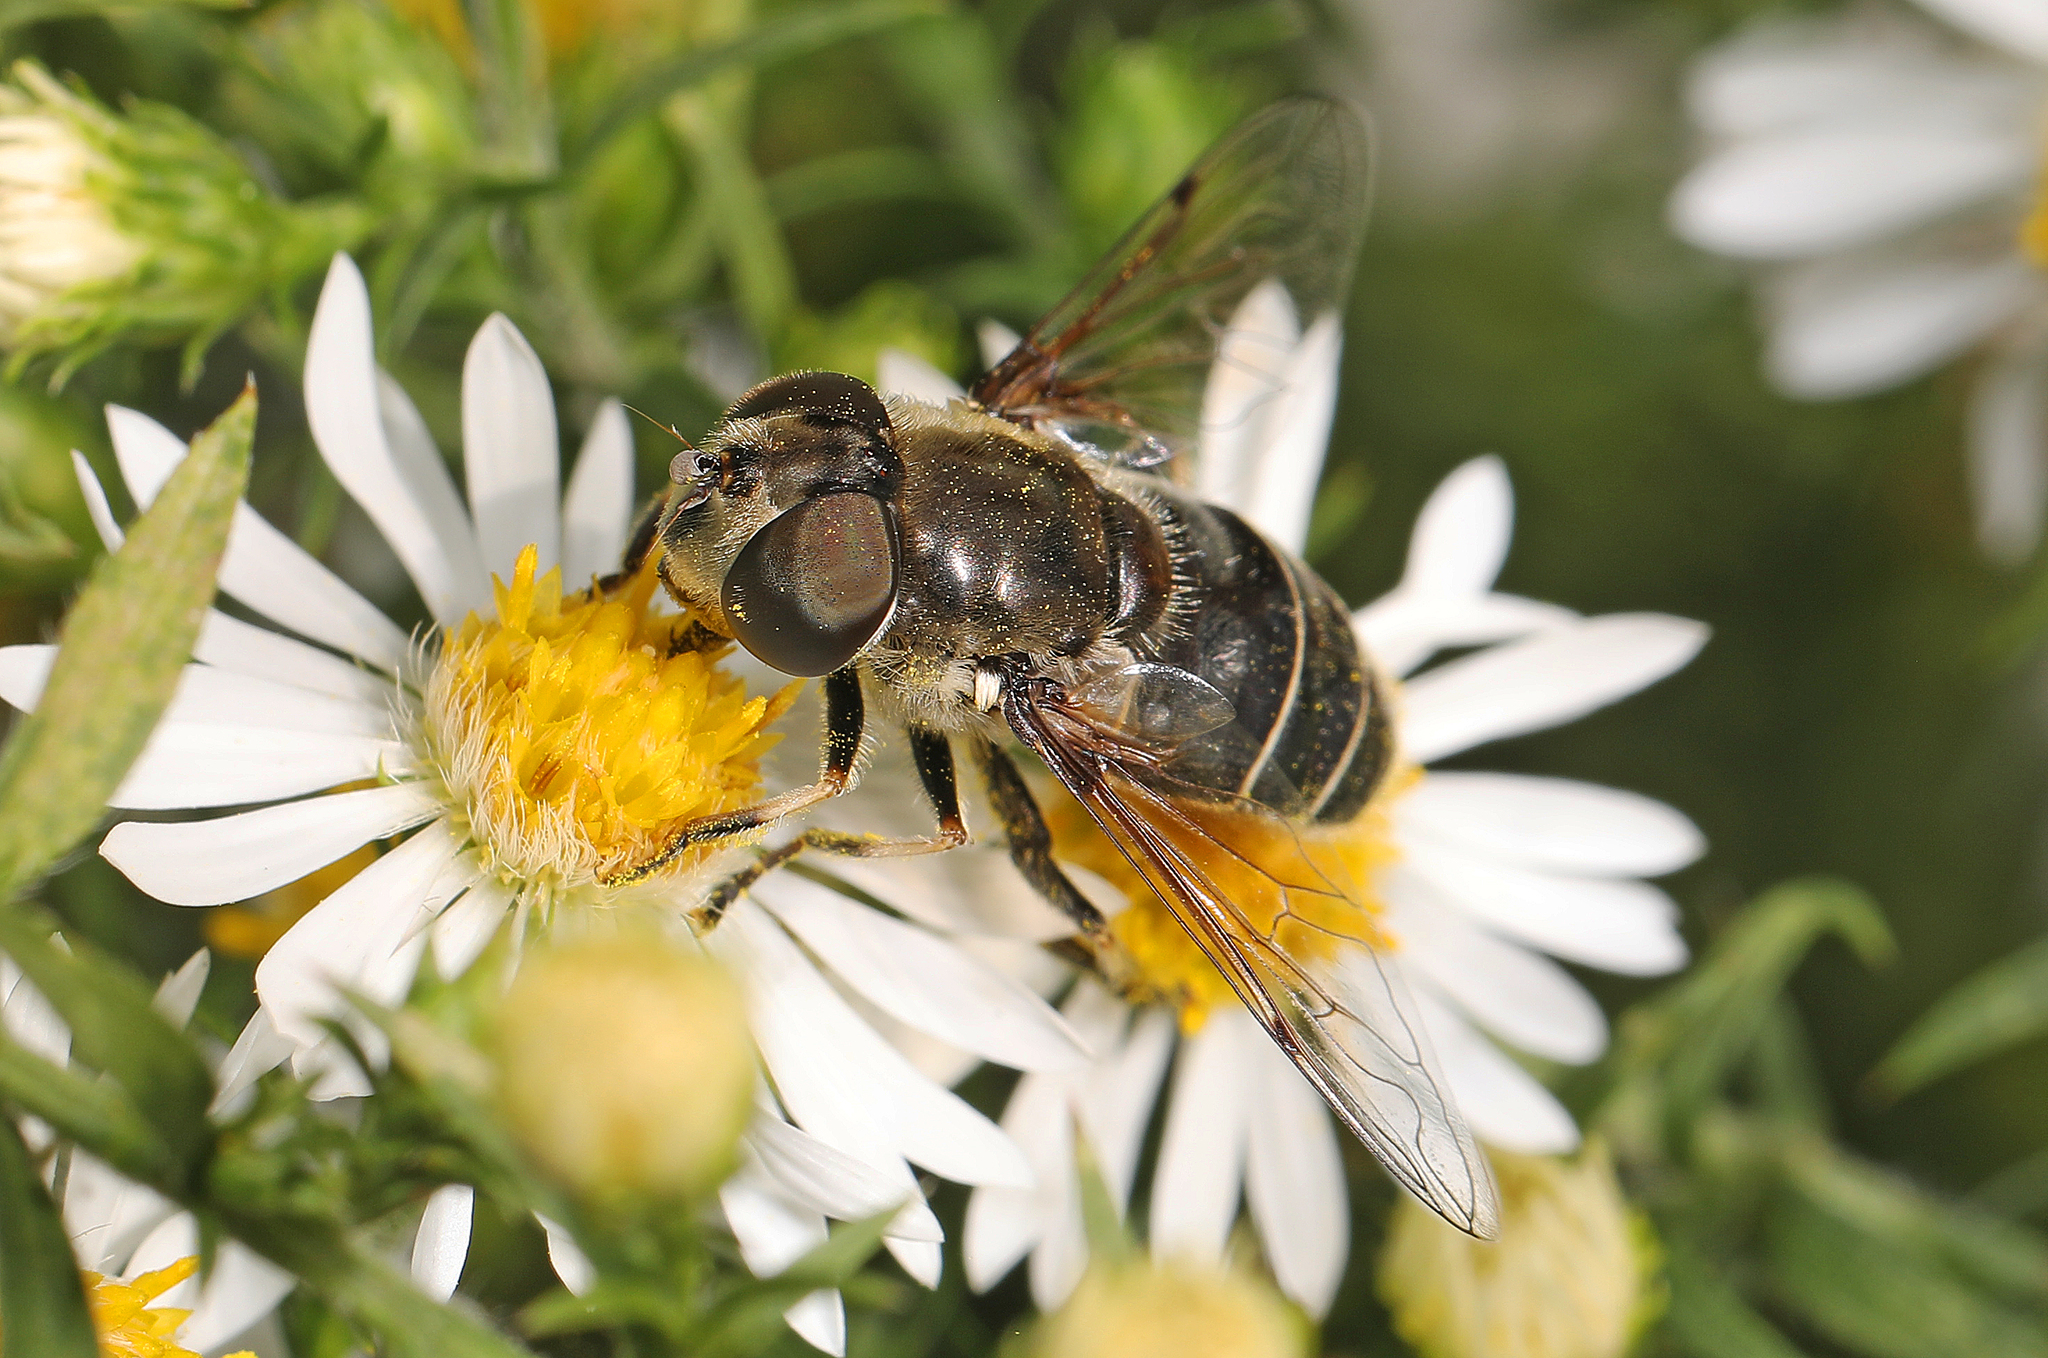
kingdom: Animalia
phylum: Arthropoda
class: Insecta
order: Diptera
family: Syrphidae
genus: Eristalis
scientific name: Eristalis dimidiata
